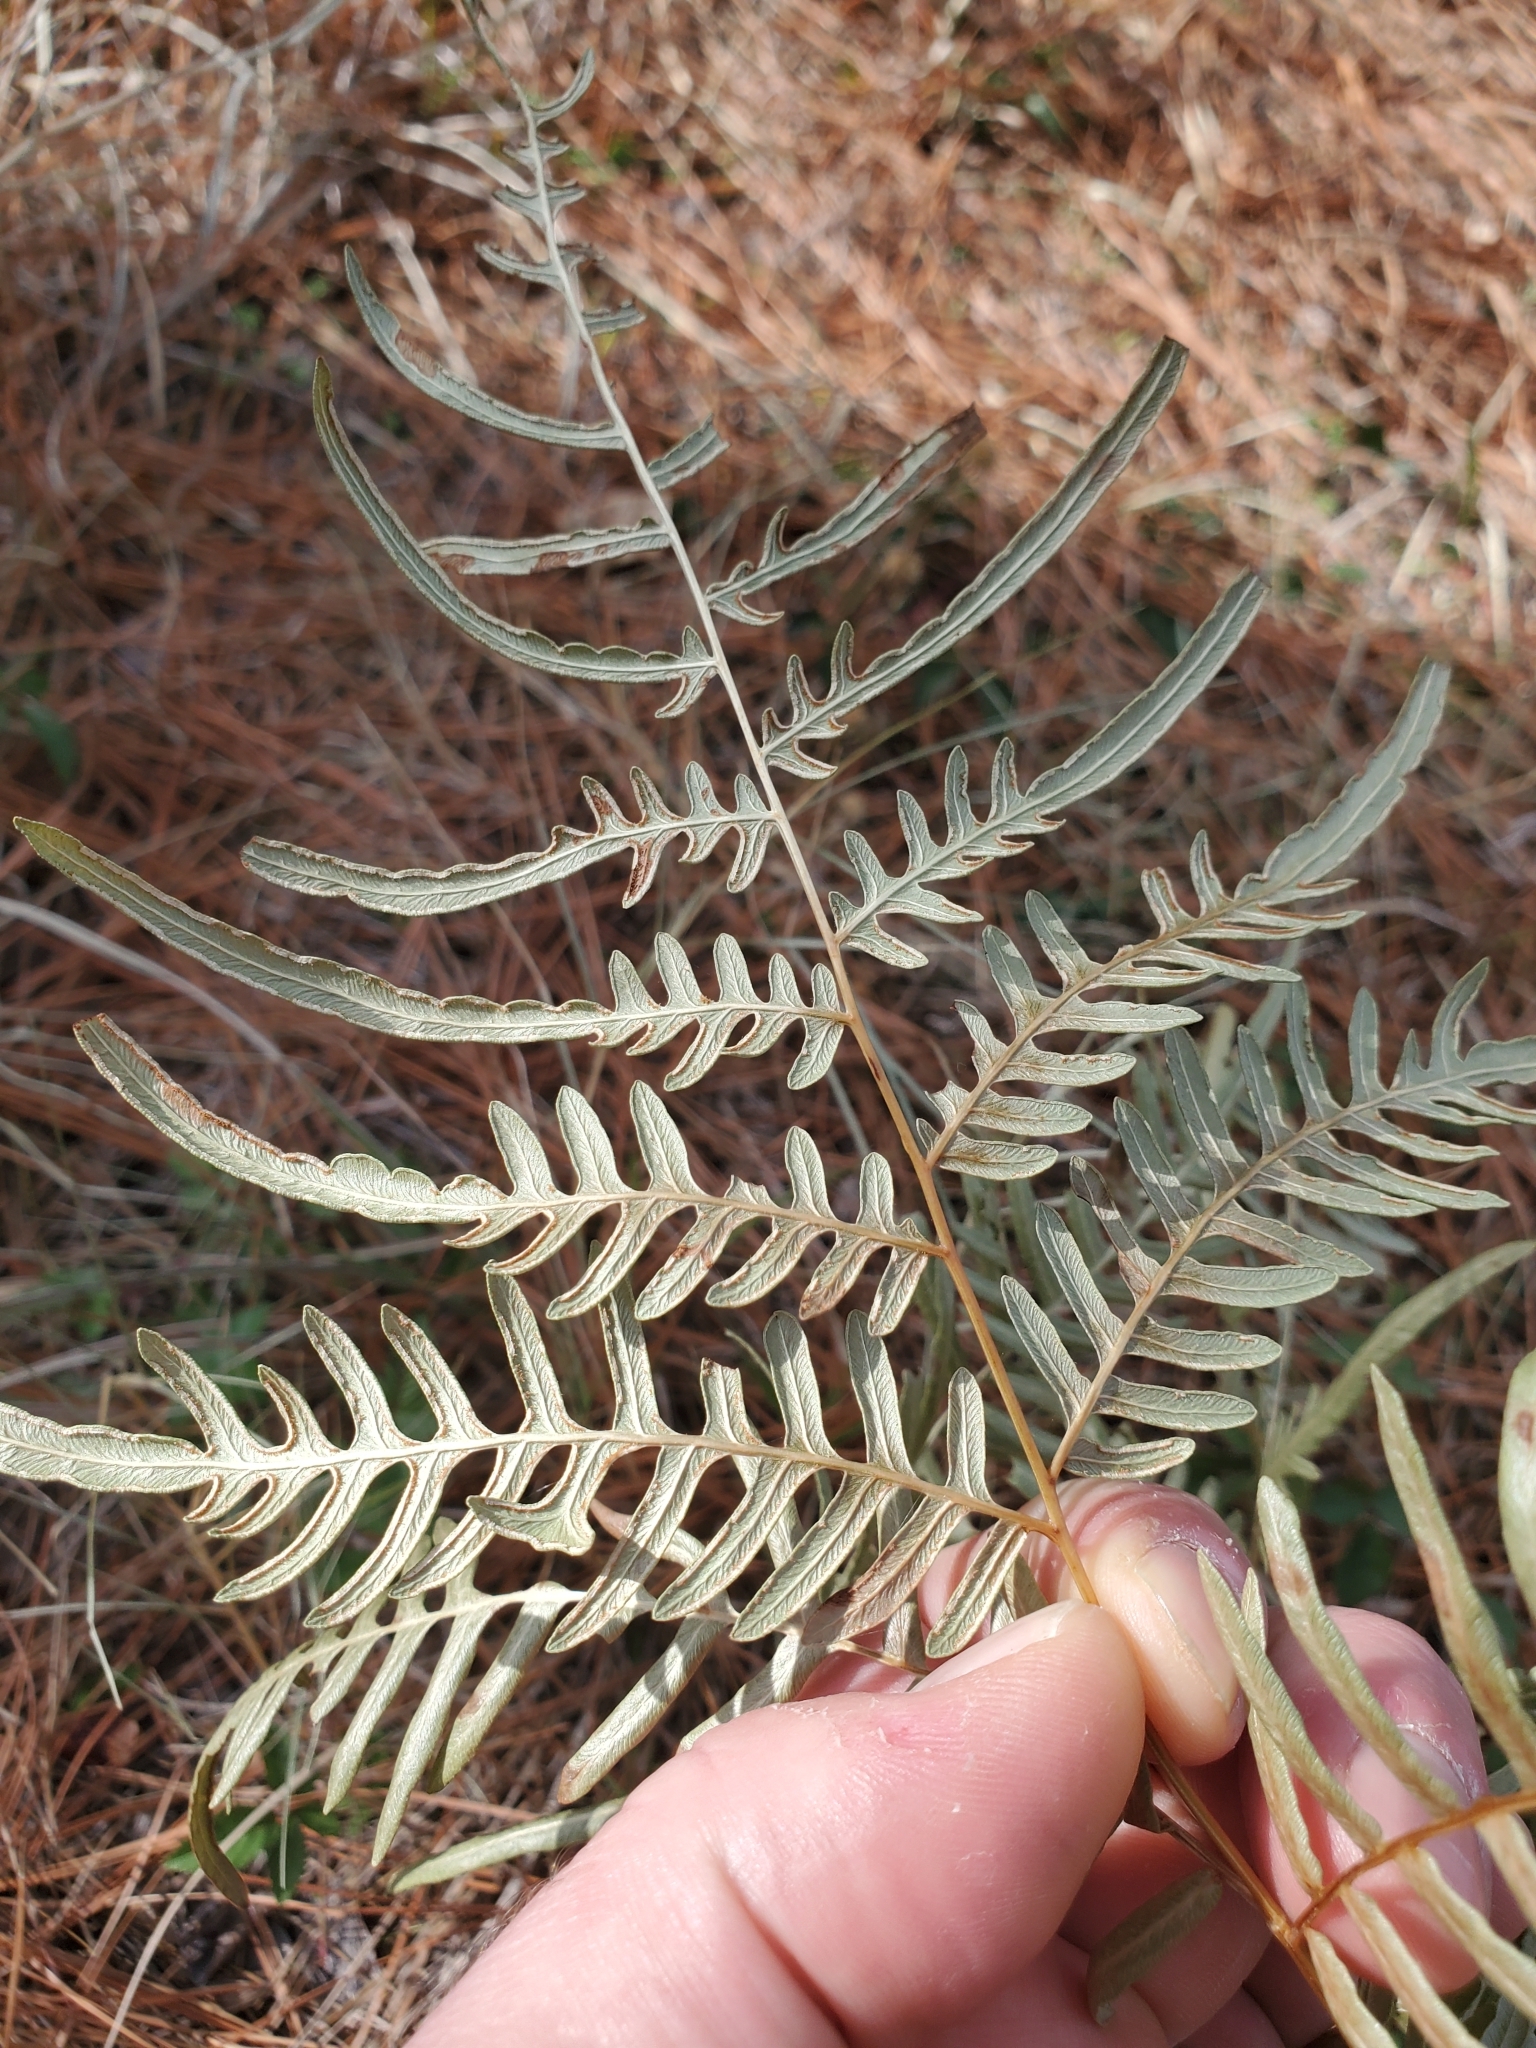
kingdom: Plantae
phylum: Tracheophyta
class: Polypodiopsida
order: Polypodiales
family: Dennstaedtiaceae
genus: Pteridium
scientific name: Pteridium aquilinum
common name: Bracken
